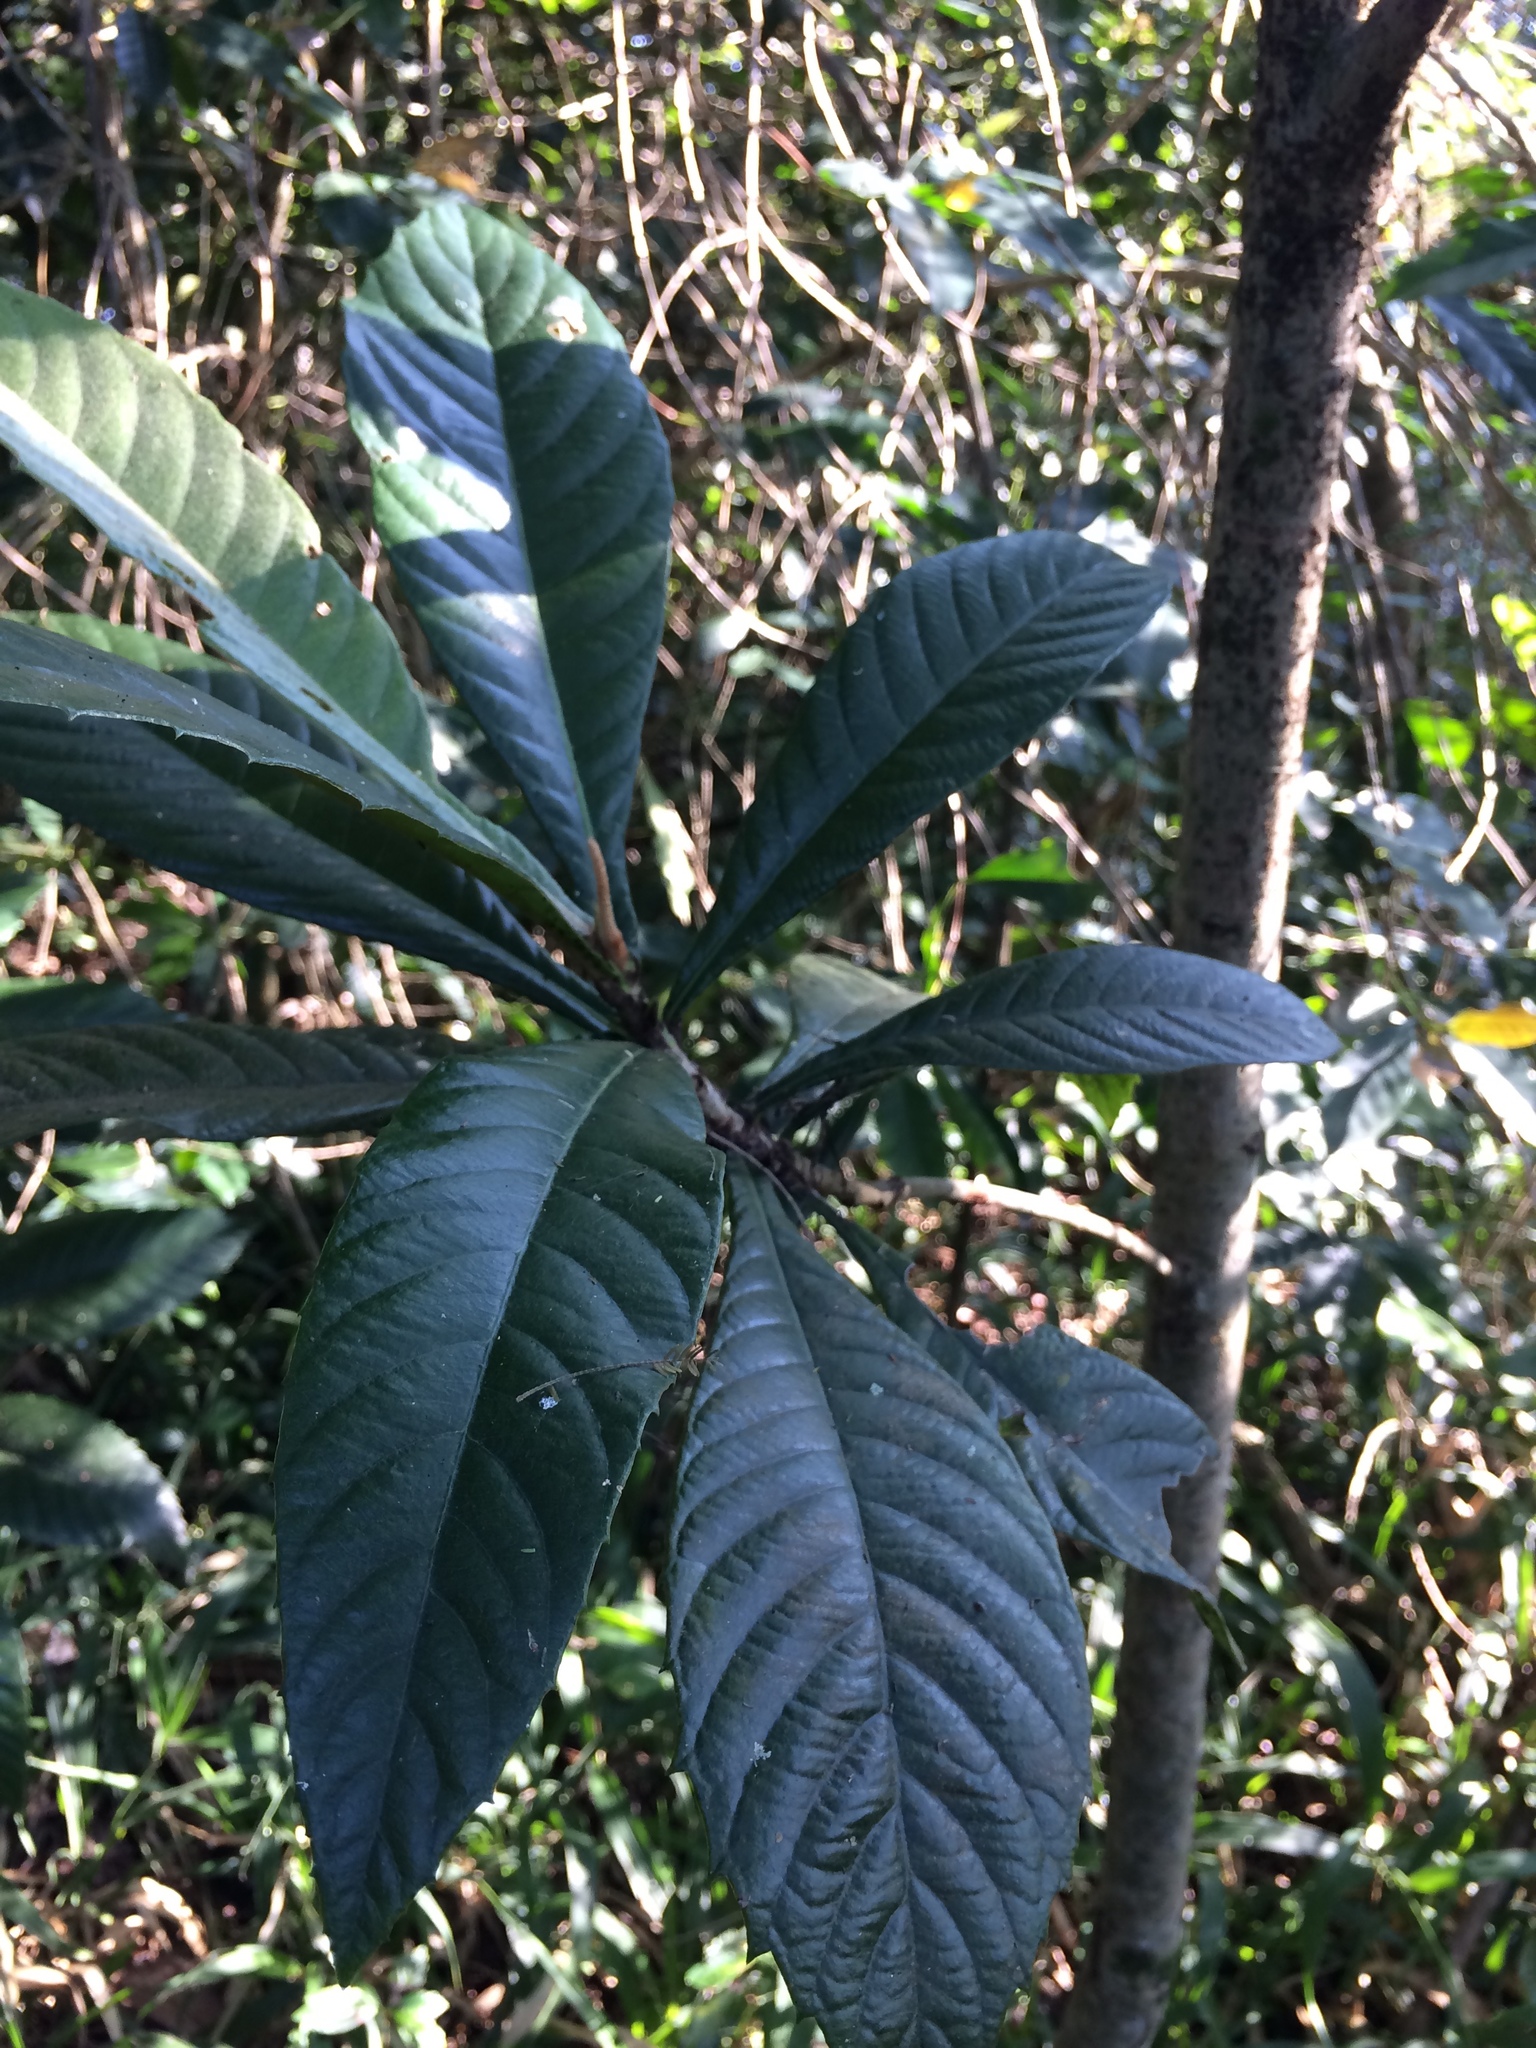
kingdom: Plantae
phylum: Tracheophyta
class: Magnoliopsida
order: Rosales
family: Rosaceae
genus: Rhaphiolepis
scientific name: Rhaphiolepis bibas
